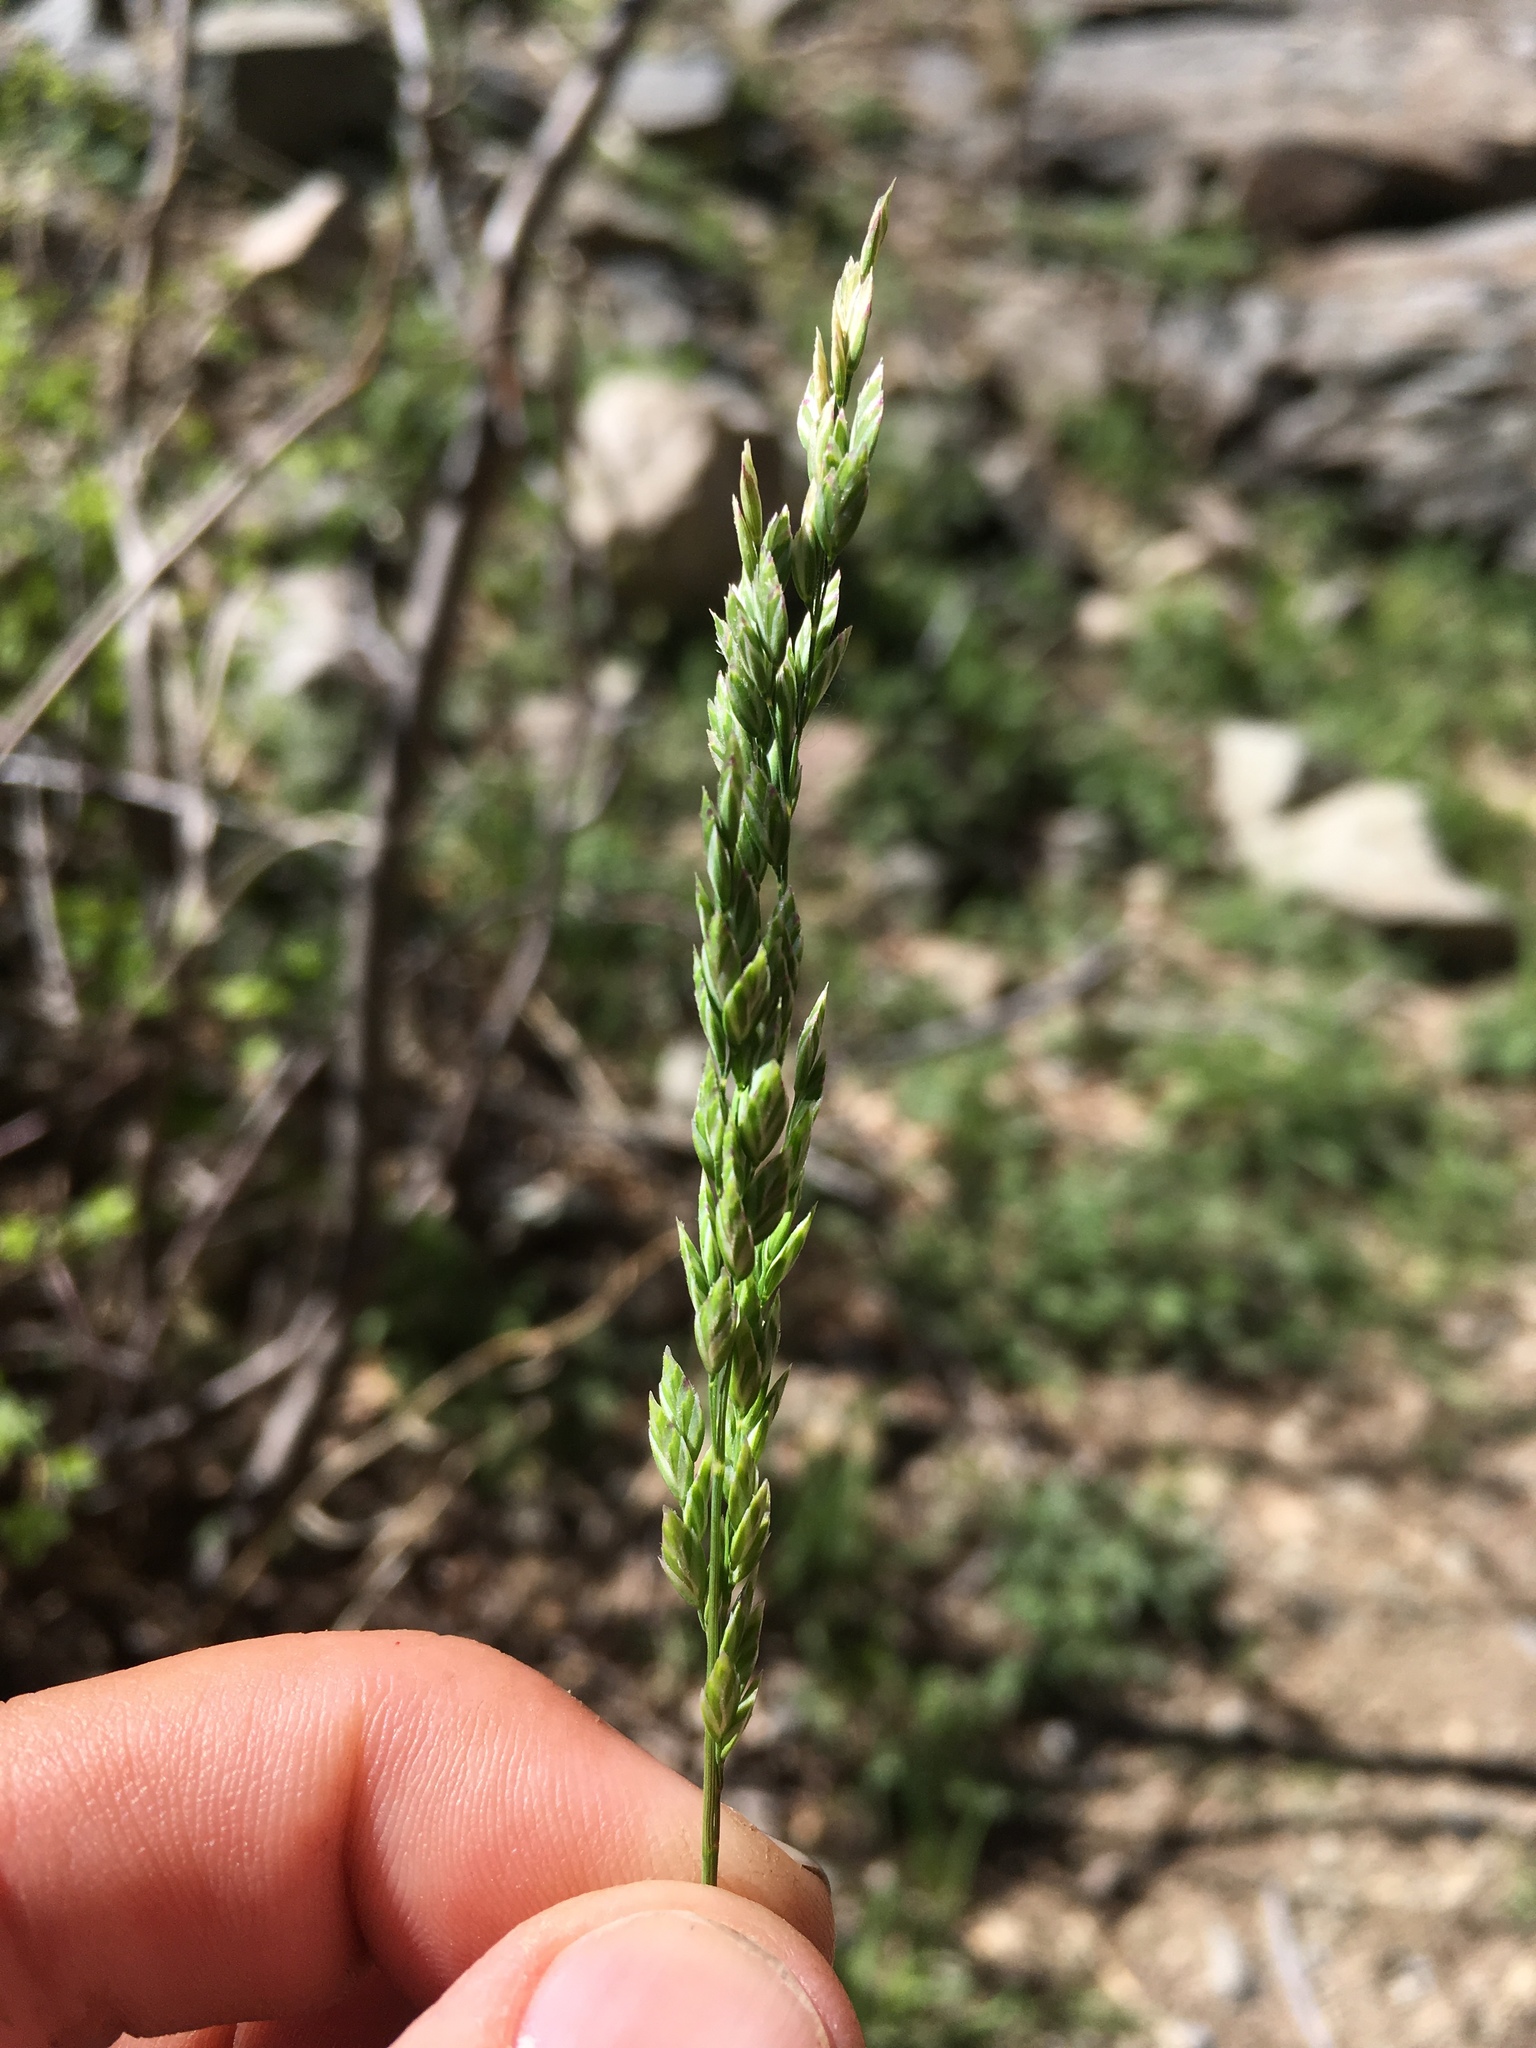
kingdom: Plantae
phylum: Tracheophyta
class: Liliopsida
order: Poales
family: Poaceae
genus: Poa
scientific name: Poa bigelovii
